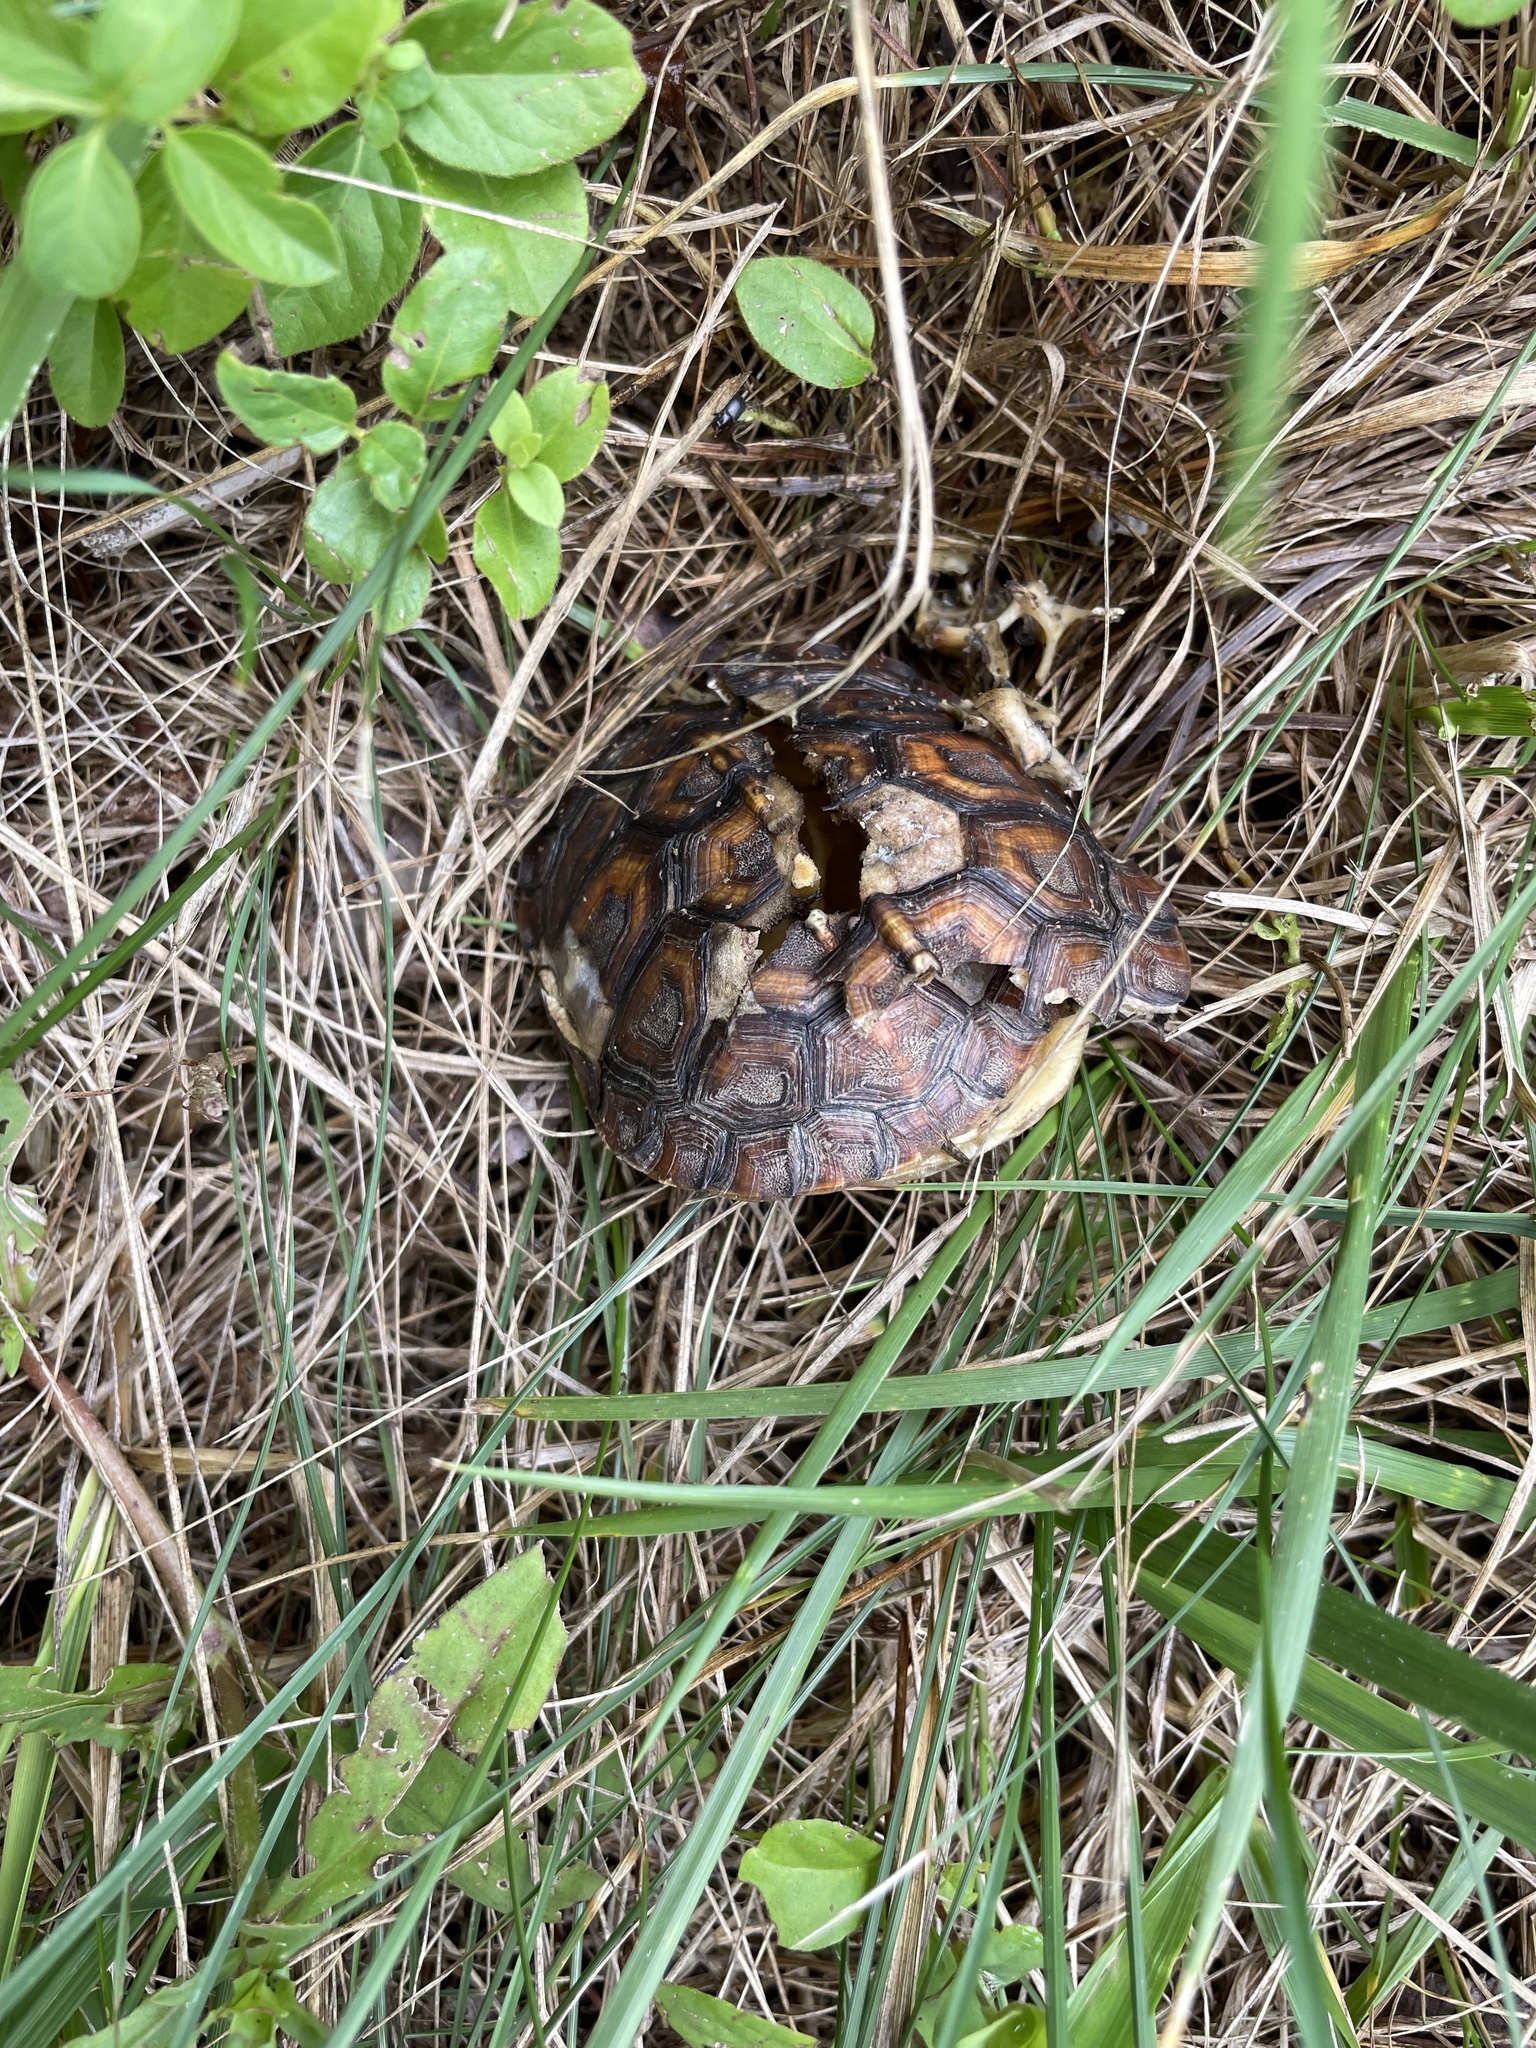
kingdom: Animalia
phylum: Chordata
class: Testudines
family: Emydidae
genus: Terrapene
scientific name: Terrapene carolina
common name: Common box turtle
